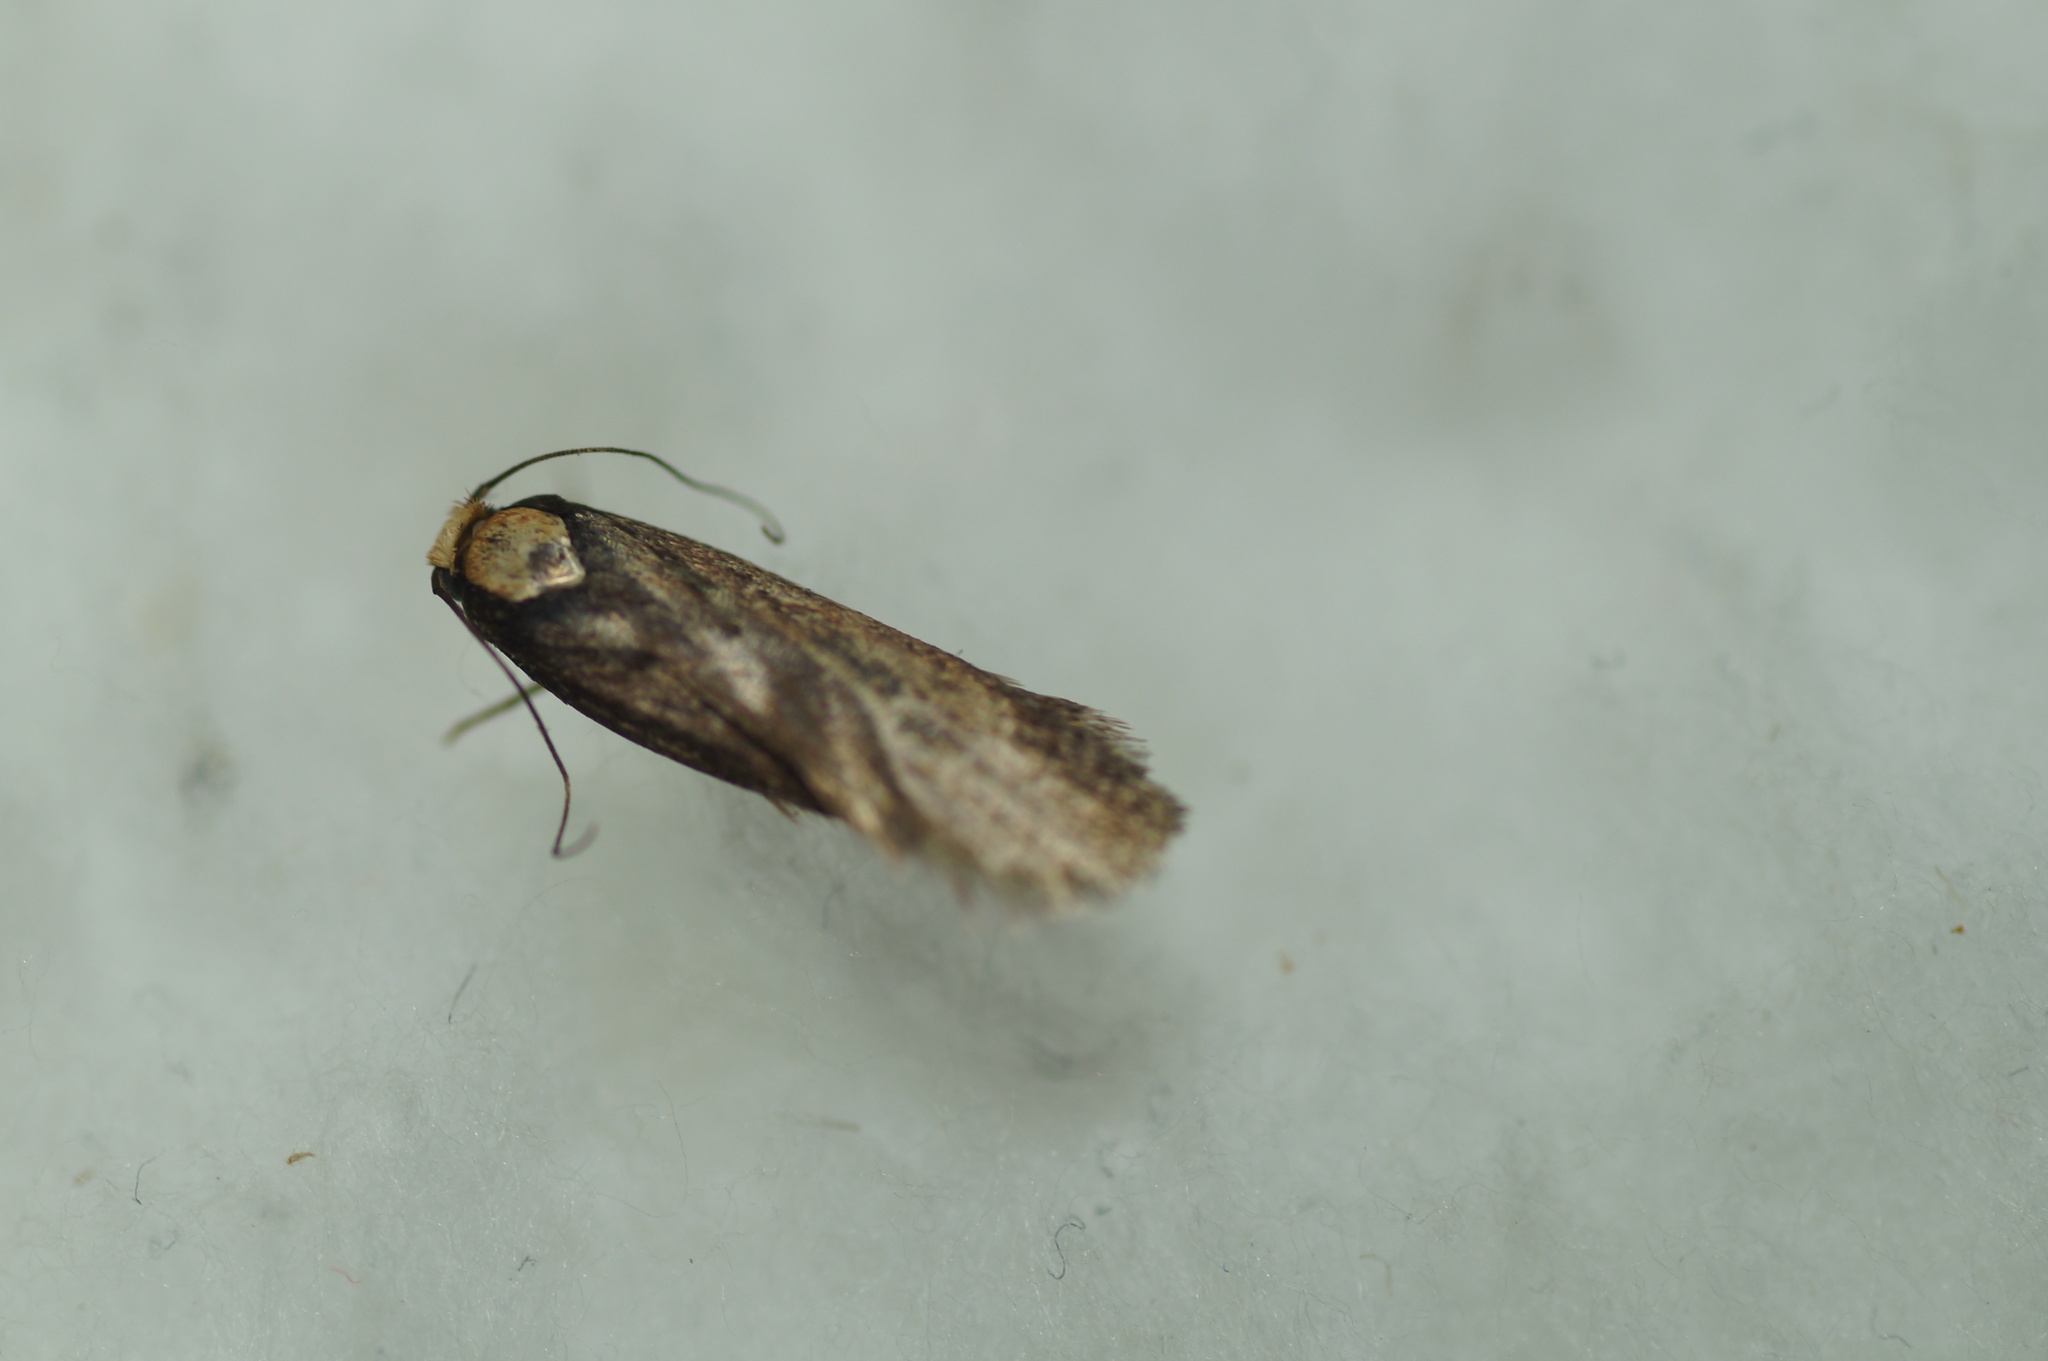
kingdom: Animalia
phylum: Arthropoda
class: Insecta
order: Lepidoptera
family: Depressariidae
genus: Depressaria
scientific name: Depressaria emeritella
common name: Tansy flat-body
